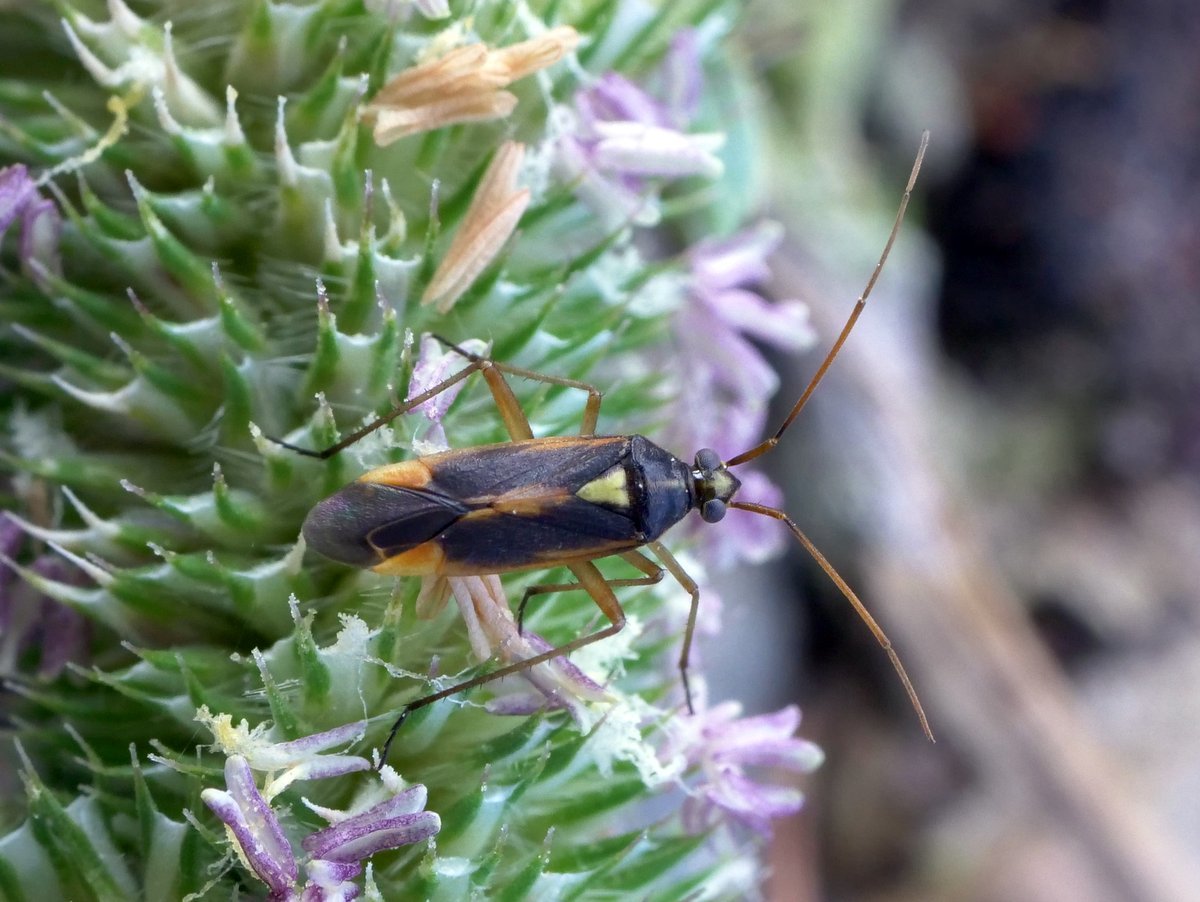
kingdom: Animalia
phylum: Arthropoda
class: Insecta
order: Hemiptera
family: Miridae
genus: Stenotus
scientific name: Stenotus binotatus
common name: Plant bug
